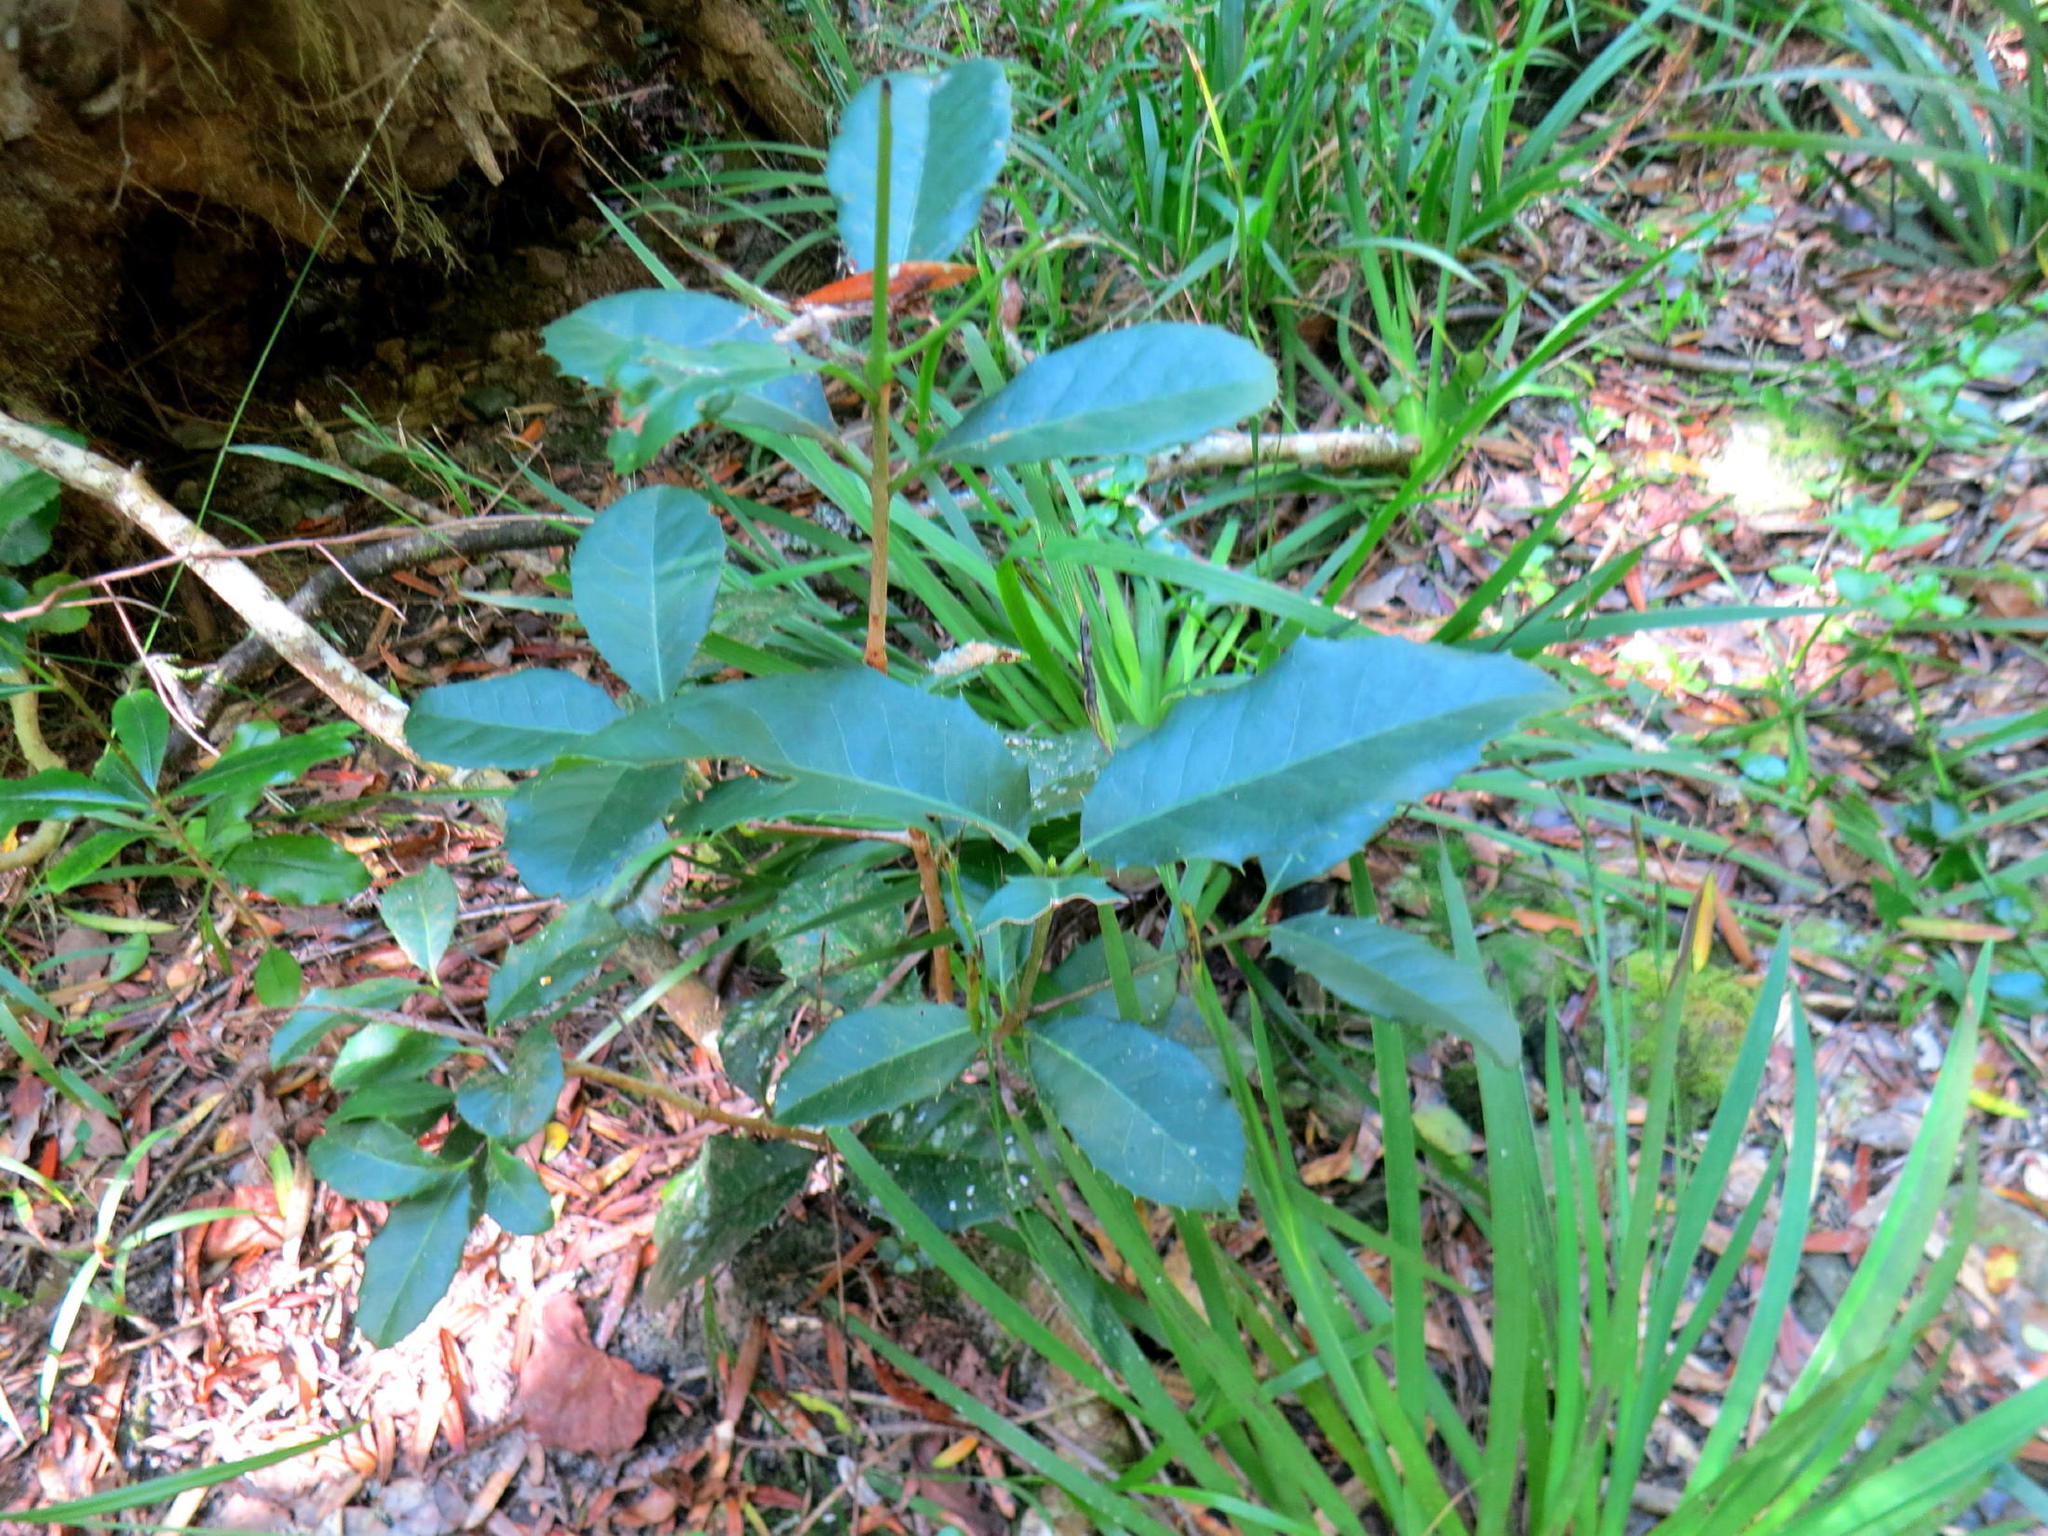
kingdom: Plantae
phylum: Tracheophyta
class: Magnoliopsida
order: Celastrales
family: Celastraceae
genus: Elaeodendron
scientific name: Elaeodendron croceum
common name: Saffron
